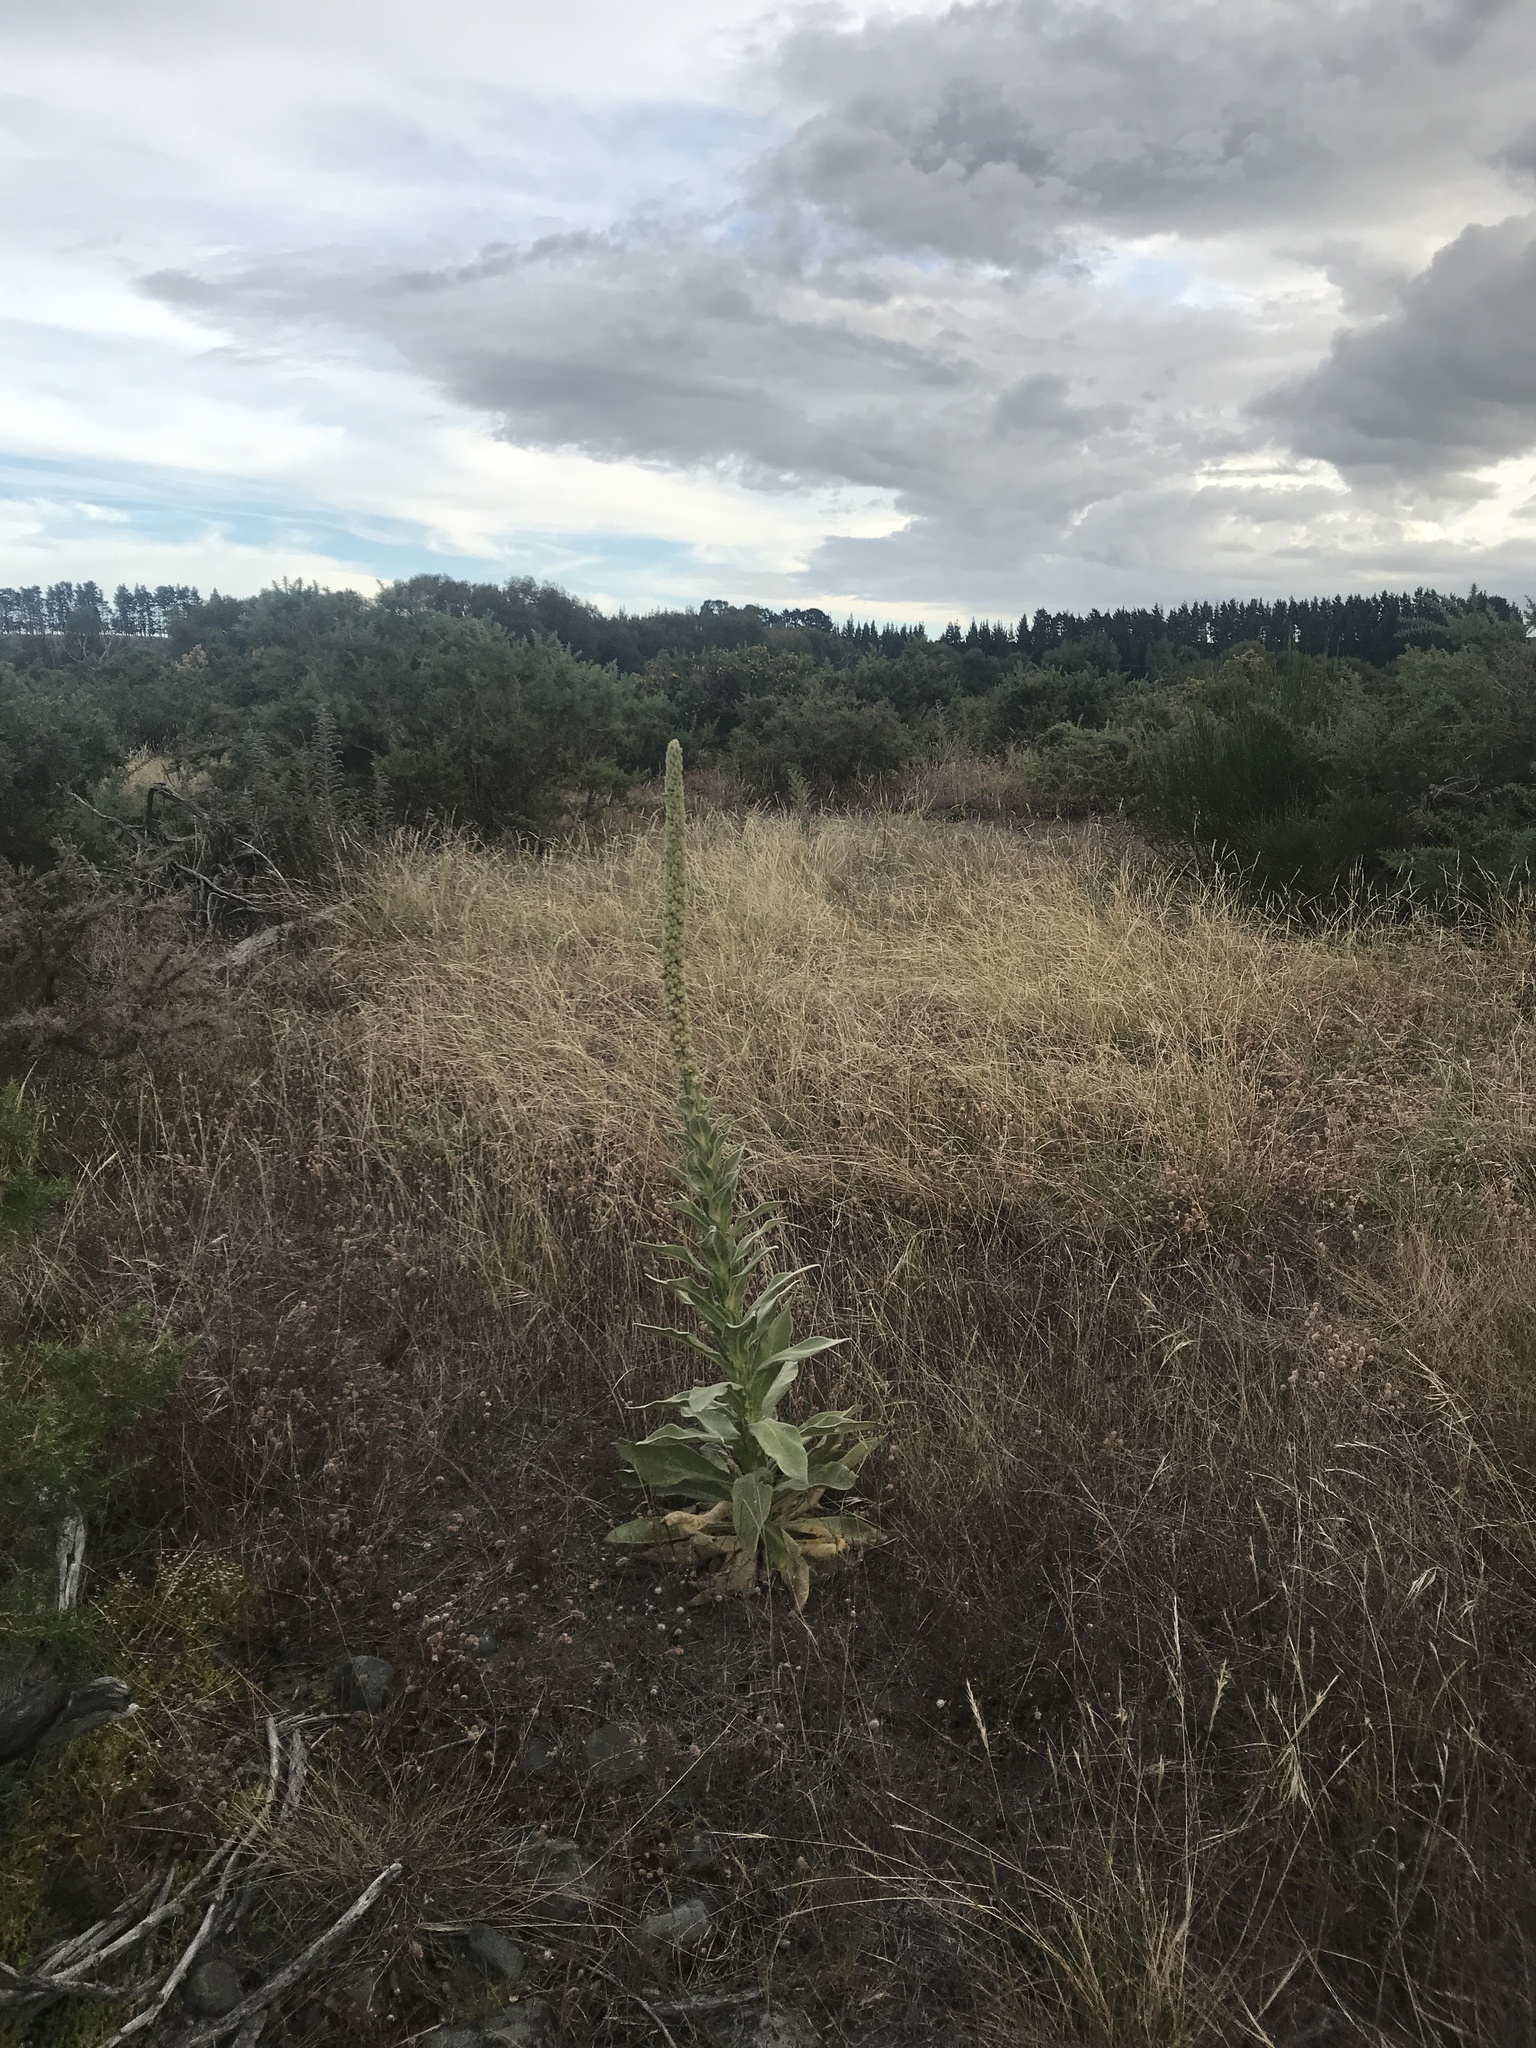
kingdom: Plantae
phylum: Tracheophyta
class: Magnoliopsida
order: Lamiales
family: Scrophulariaceae
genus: Verbascum
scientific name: Verbascum thapsus
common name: Common mullein
